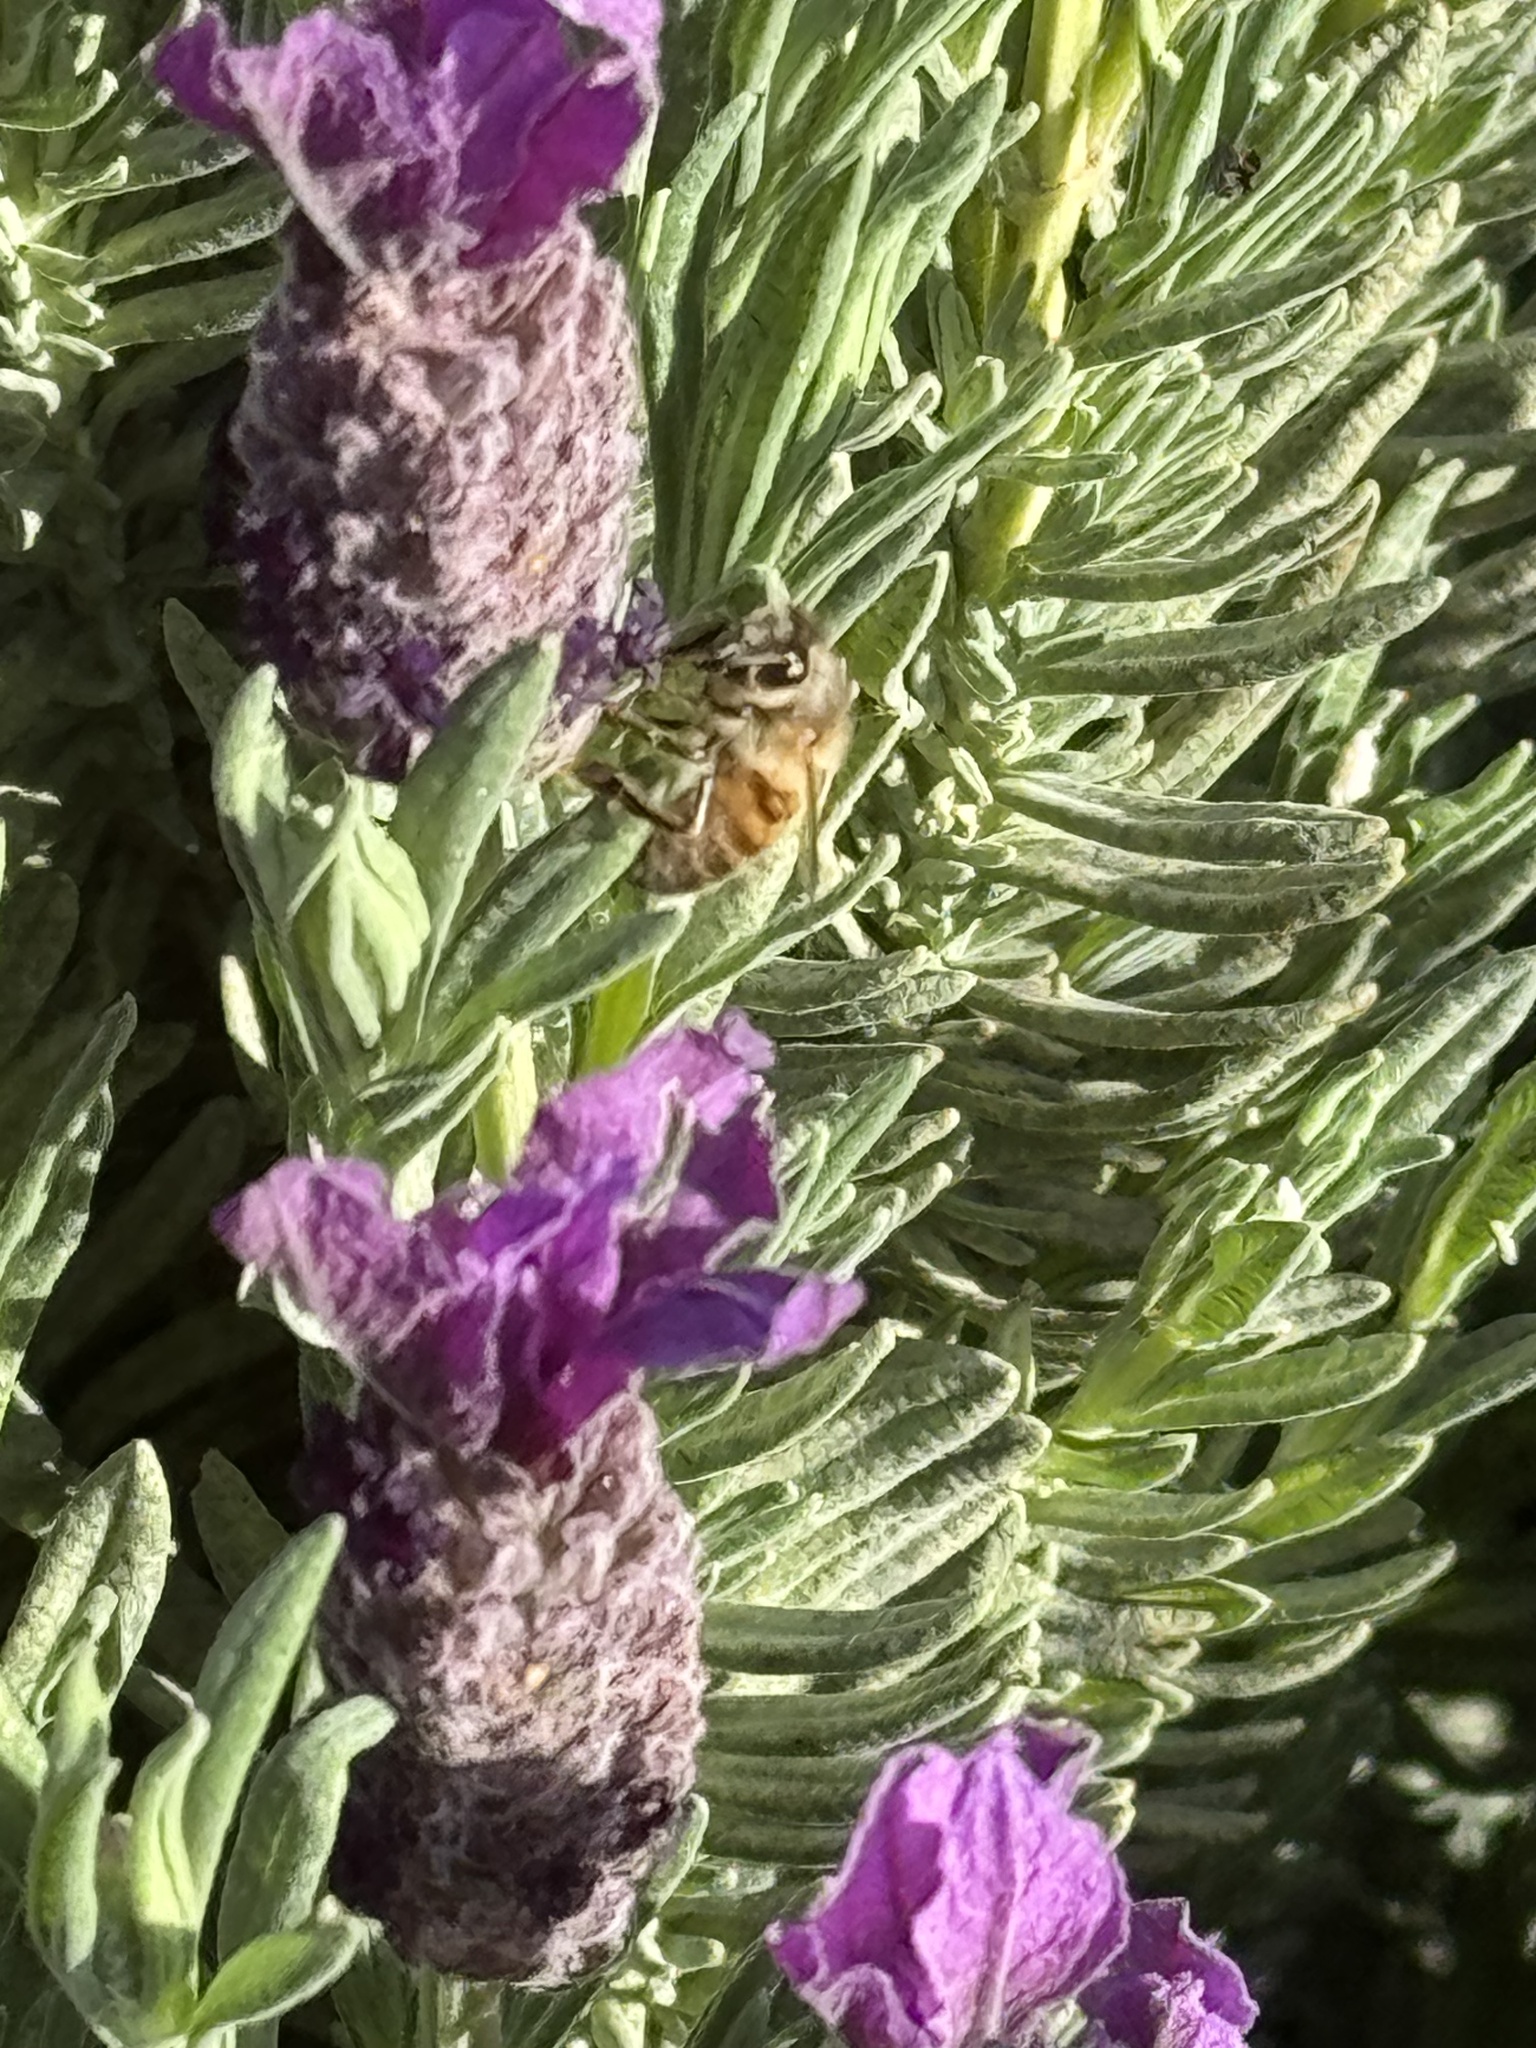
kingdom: Animalia
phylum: Arthropoda
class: Insecta
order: Hymenoptera
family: Apidae
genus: Apis
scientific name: Apis mellifera
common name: Honey bee
